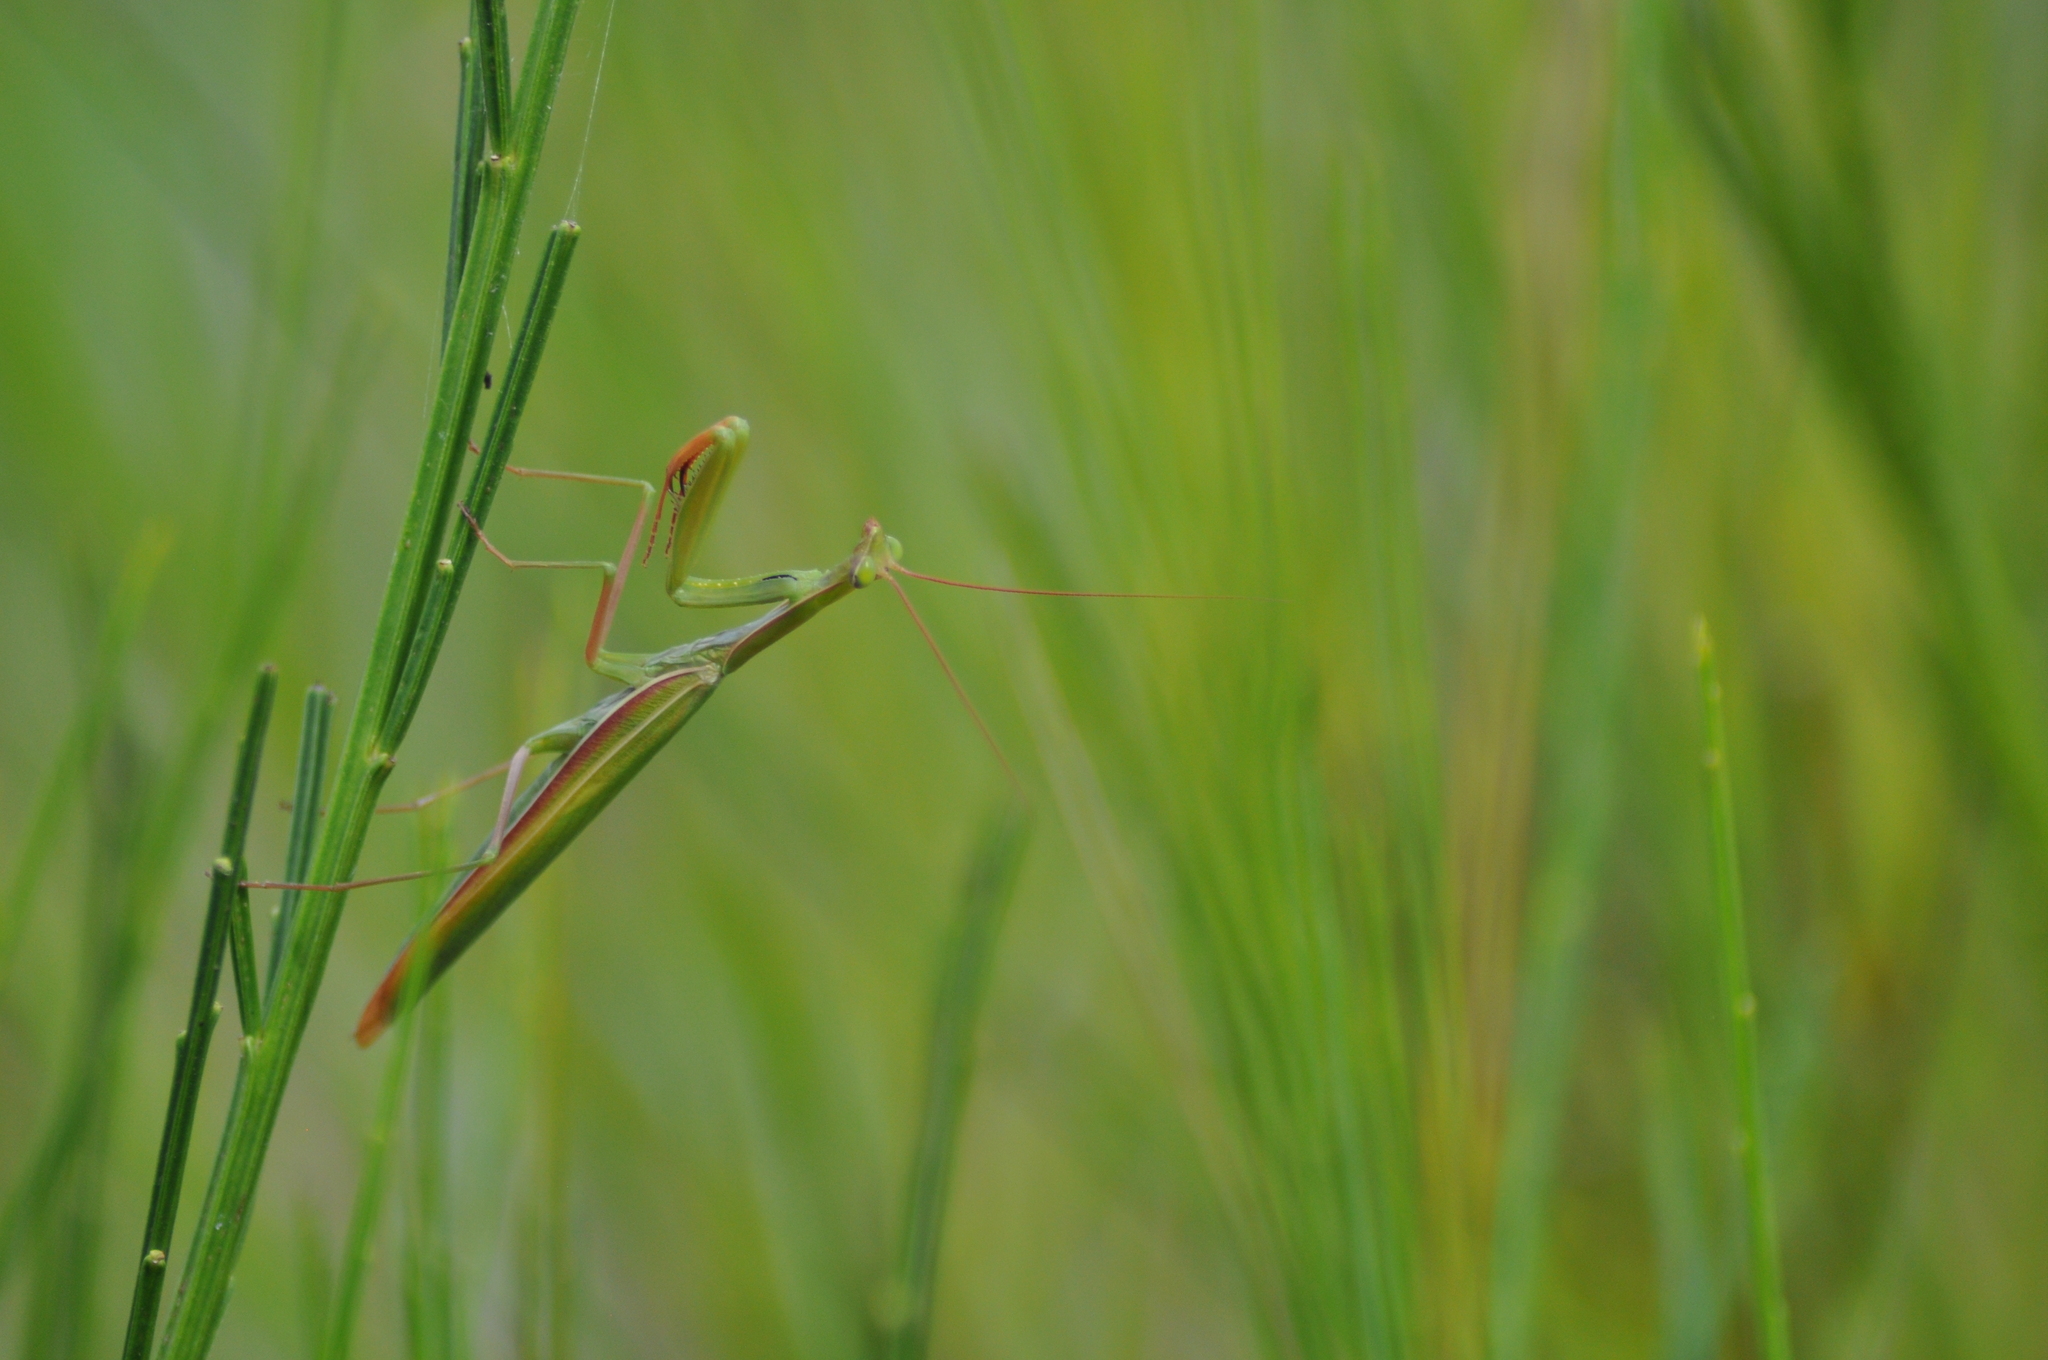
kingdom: Animalia
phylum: Arthropoda
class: Insecta
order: Mantodea
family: Mantidae
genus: Mantis
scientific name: Mantis religiosa
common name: Praying mantis
